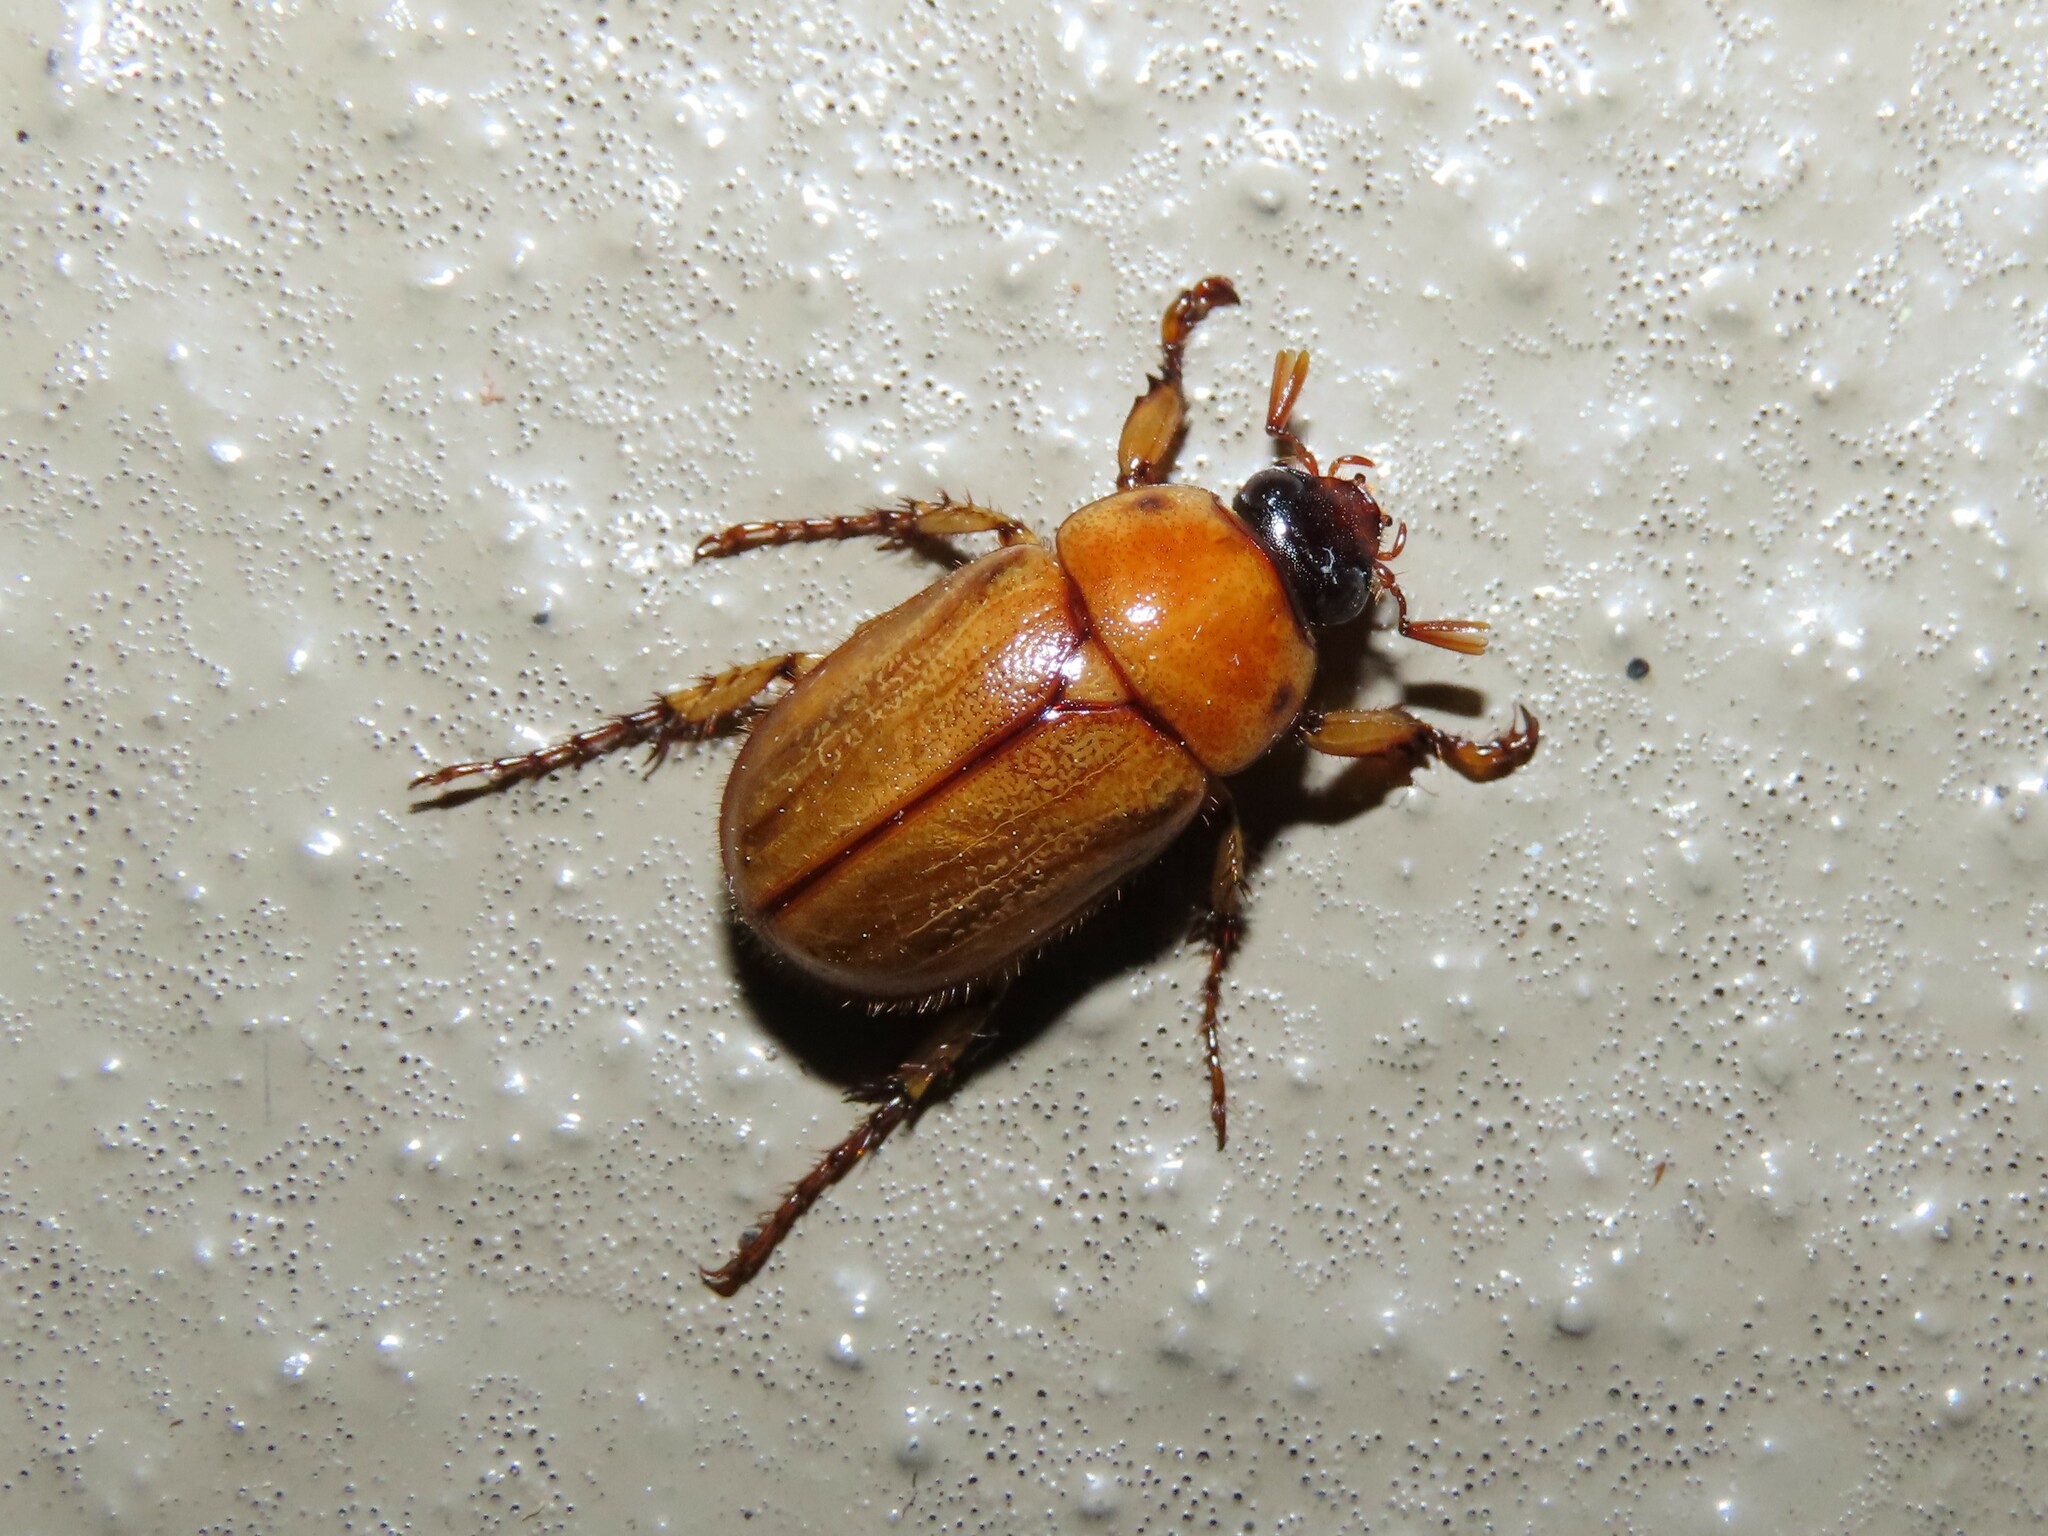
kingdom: Animalia
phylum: Arthropoda
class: Insecta
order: Coleoptera
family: Scarabaeidae
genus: Cyclocephala
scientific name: Cyclocephala lurida
